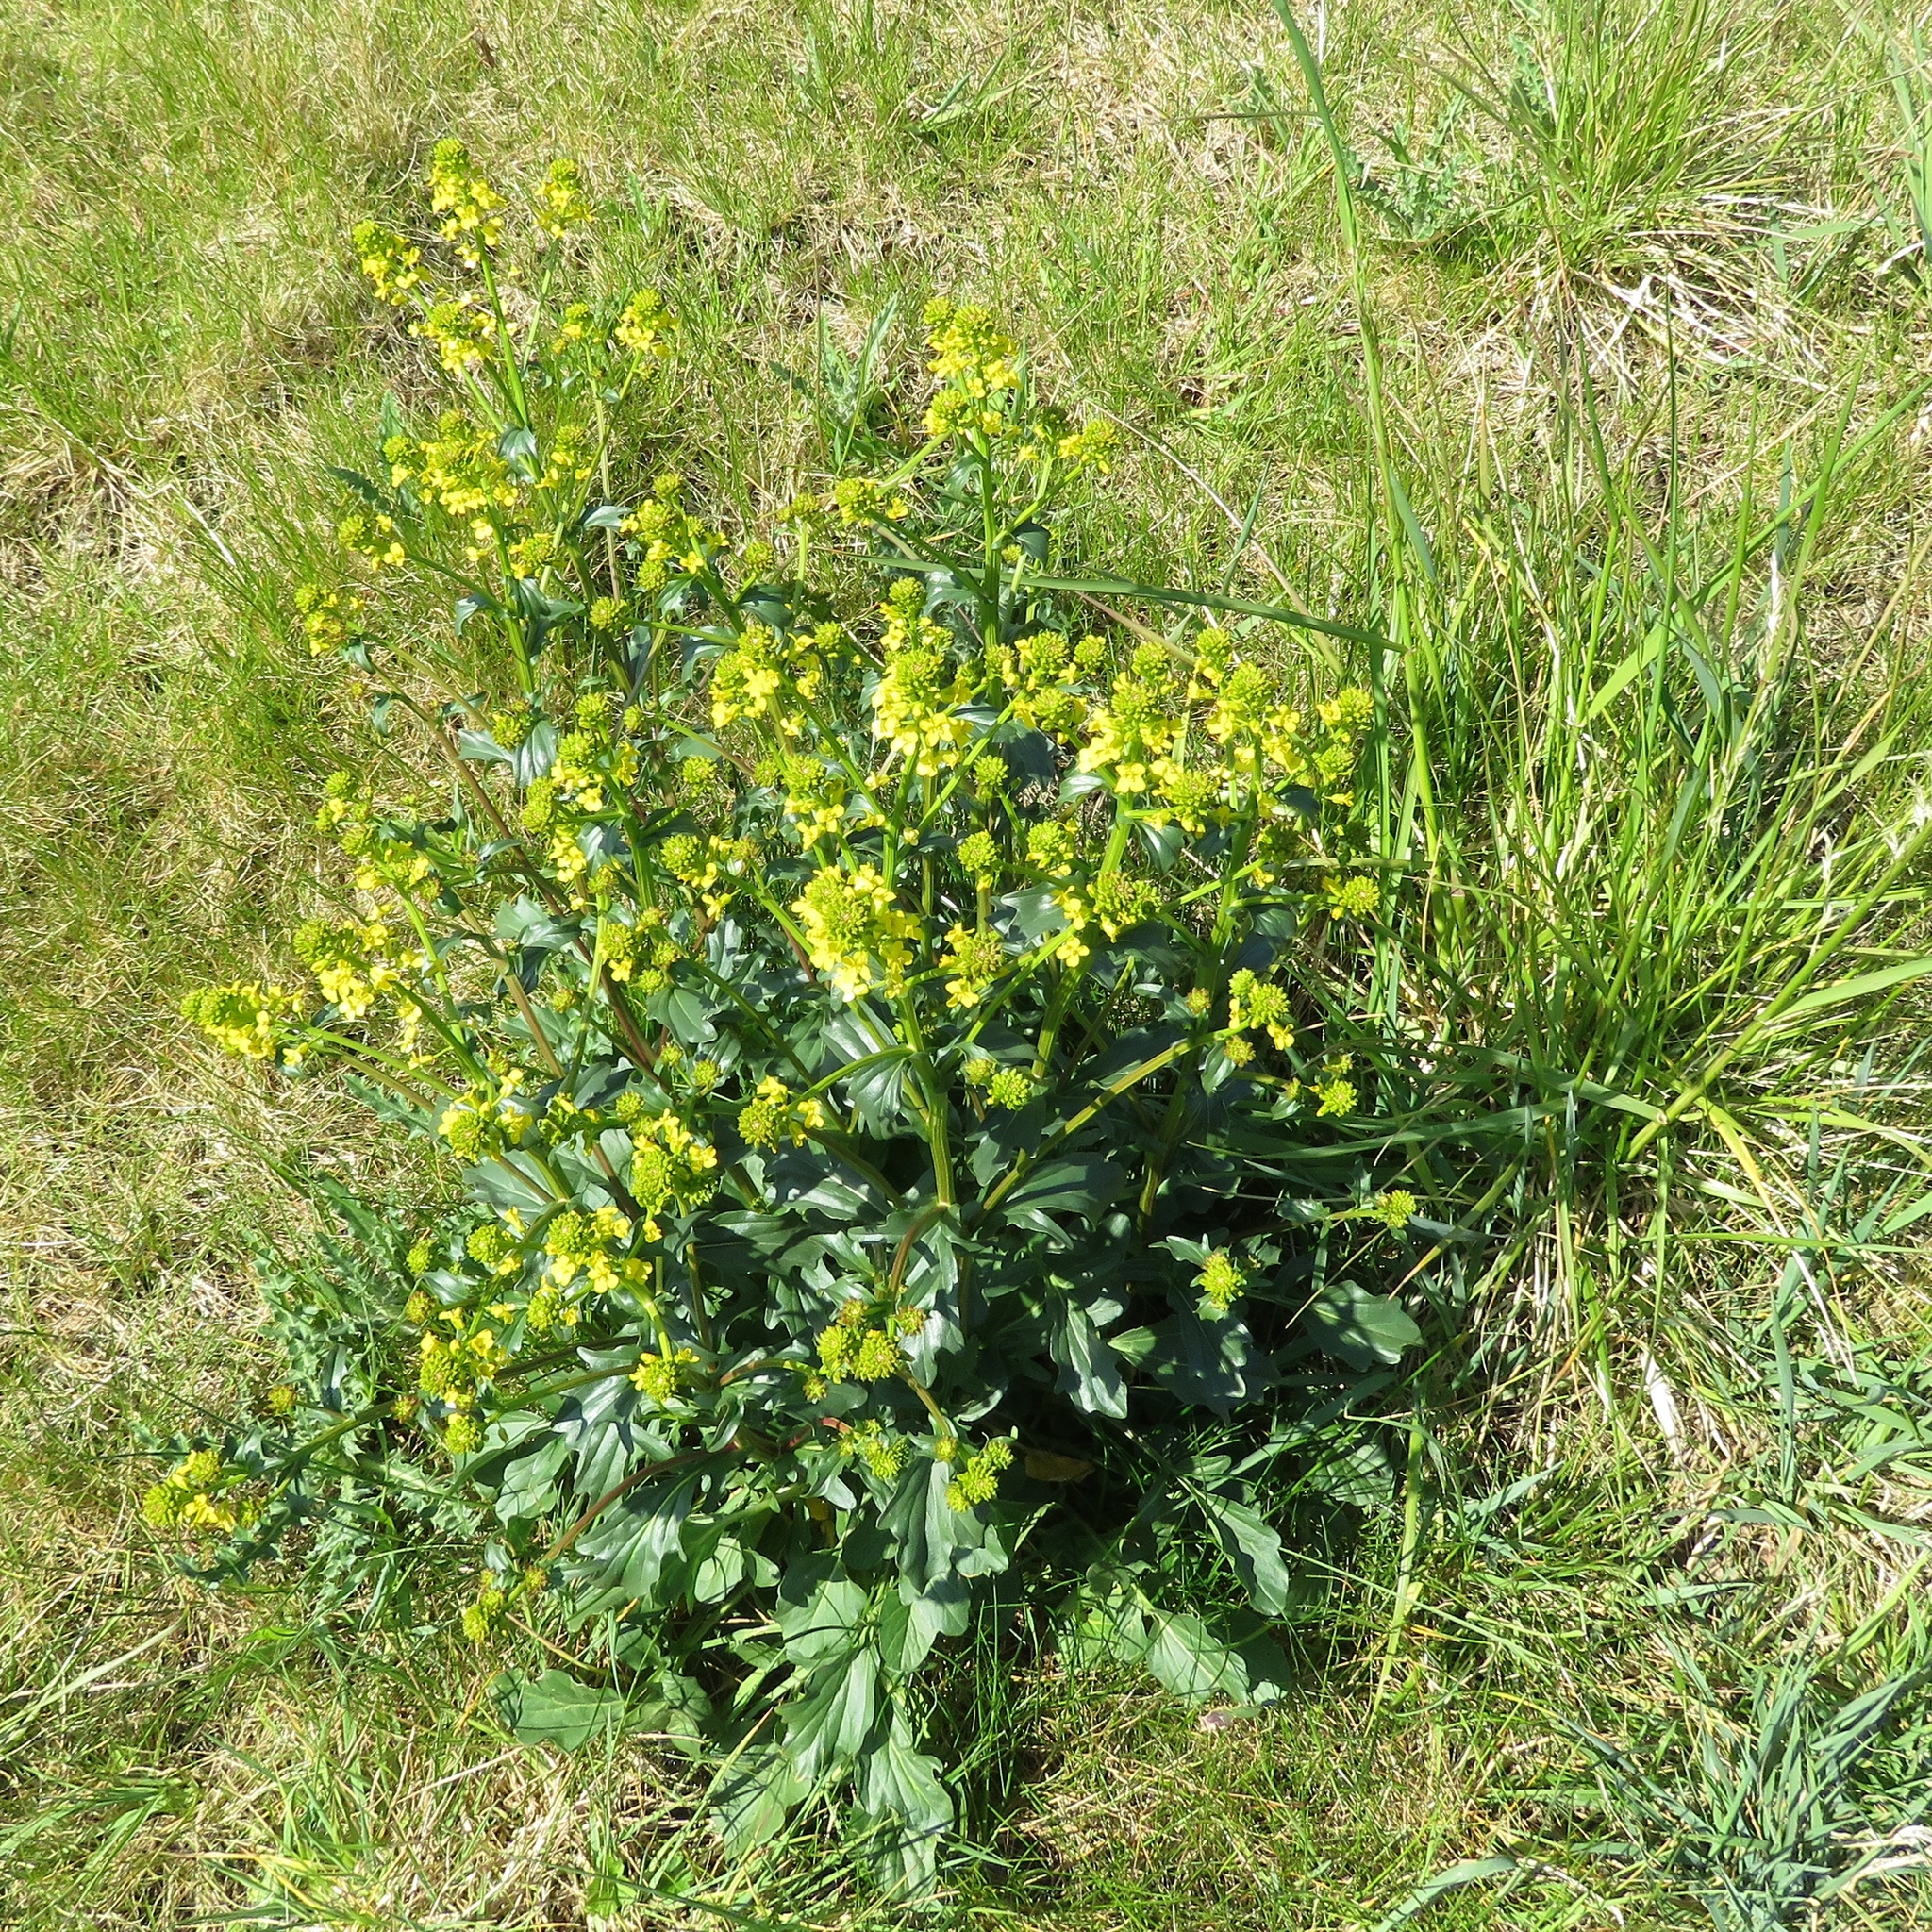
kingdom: Plantae
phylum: Tracheophyta
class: Magnoliopsida
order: Brassicales
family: Brassicaceae
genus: Barbarea
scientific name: Barbarea vulgaris
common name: Cressy-greens
